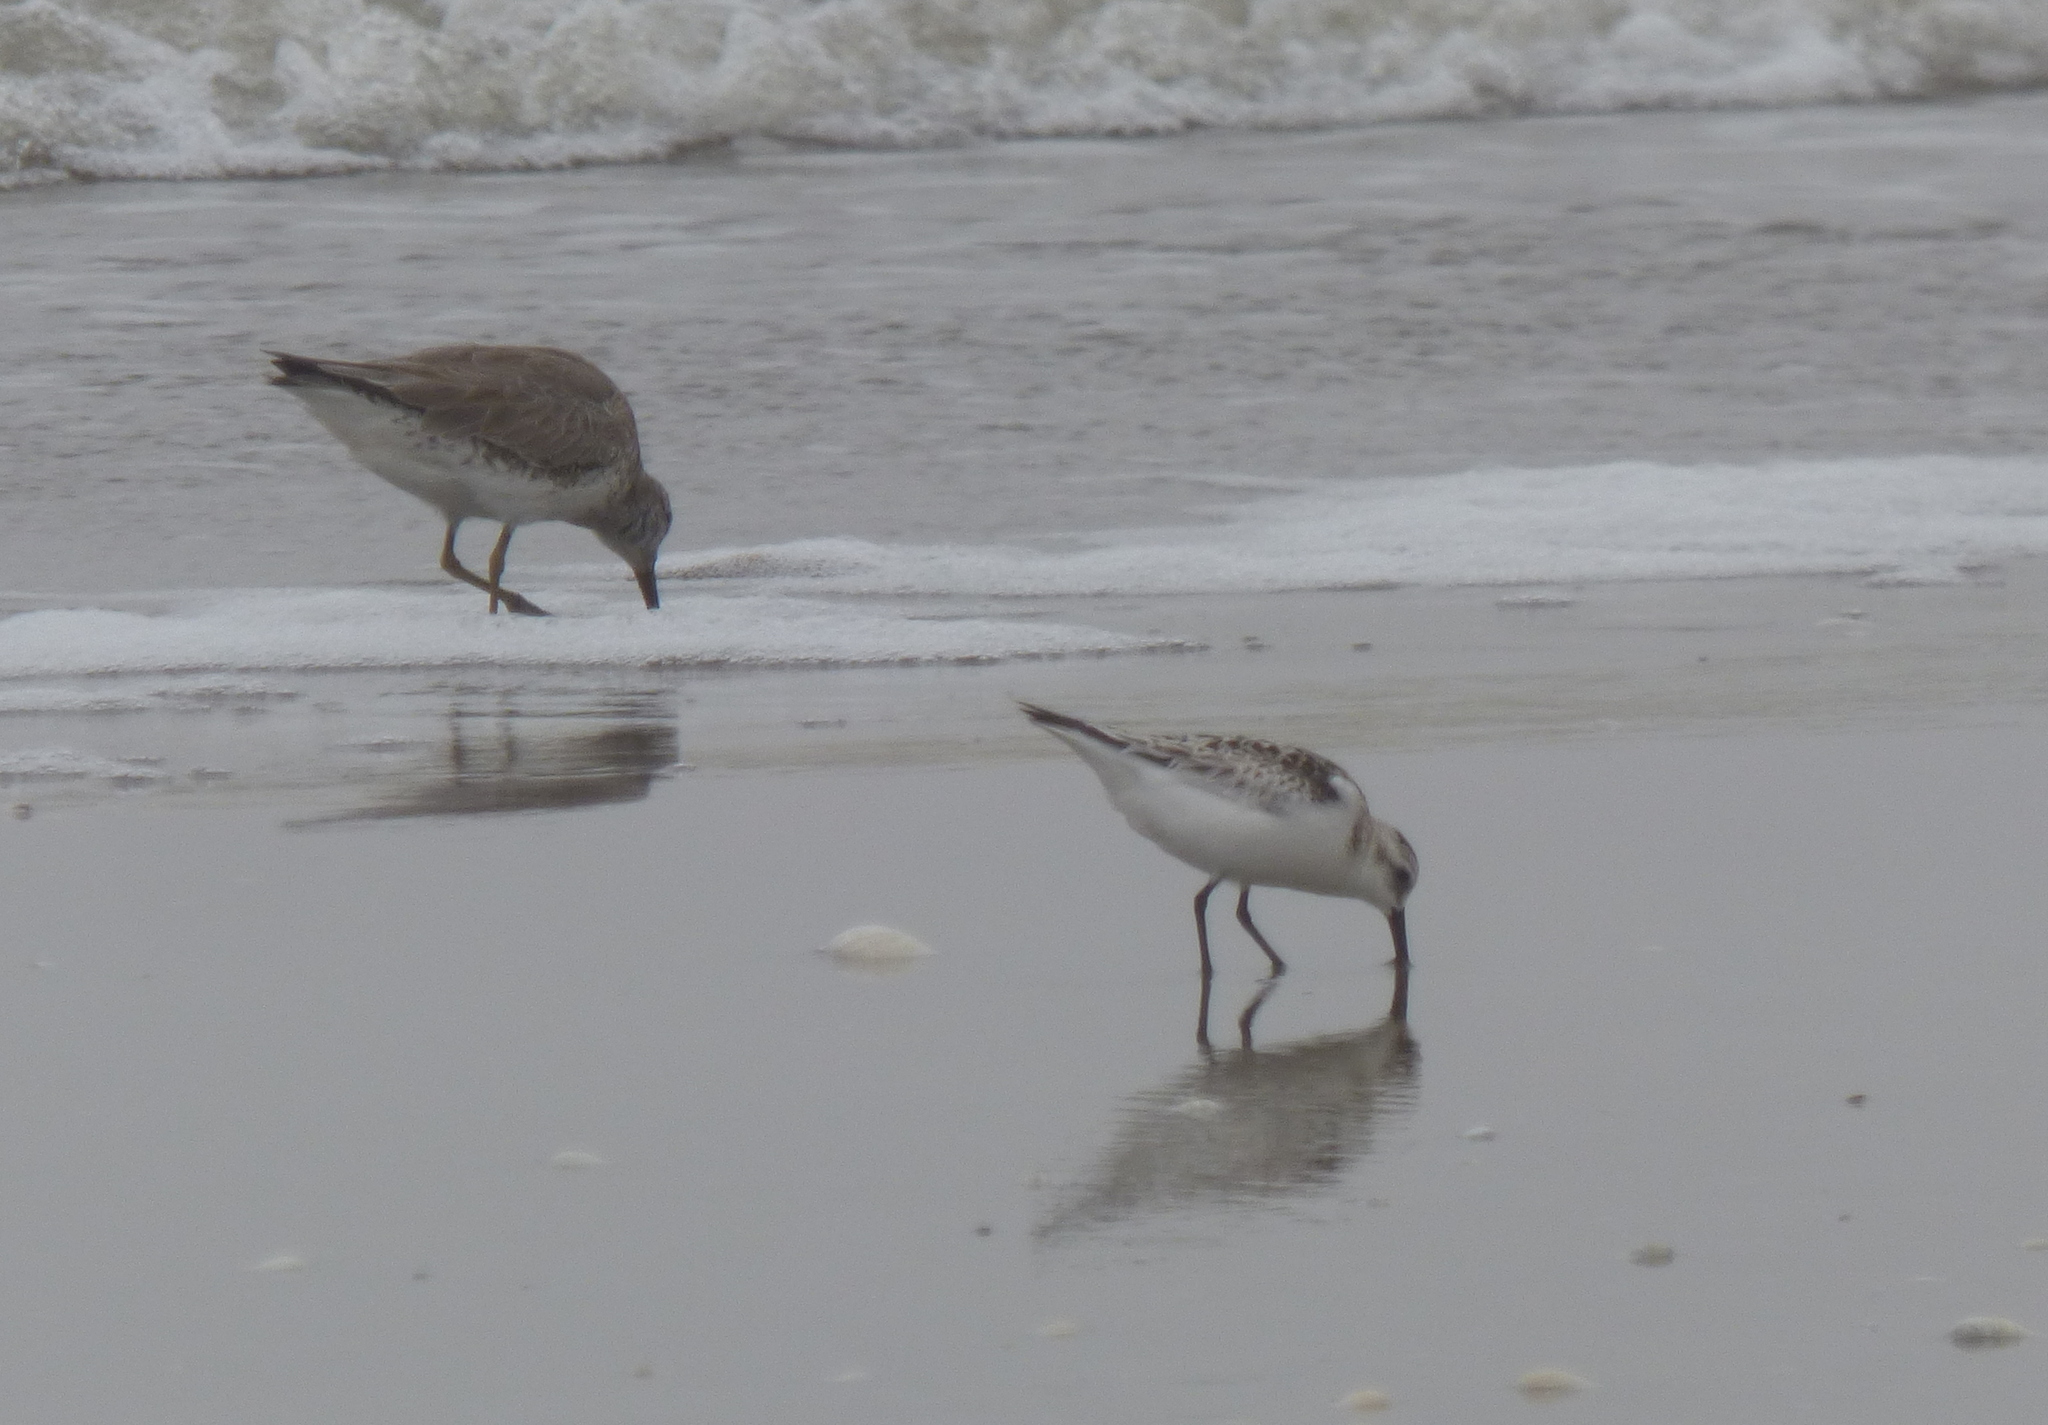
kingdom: Animalia
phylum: Chordata
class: Aves
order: Charadriiformes
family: Scolopacidae
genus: Calidris
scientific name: Calidris alba
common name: Sanderling
